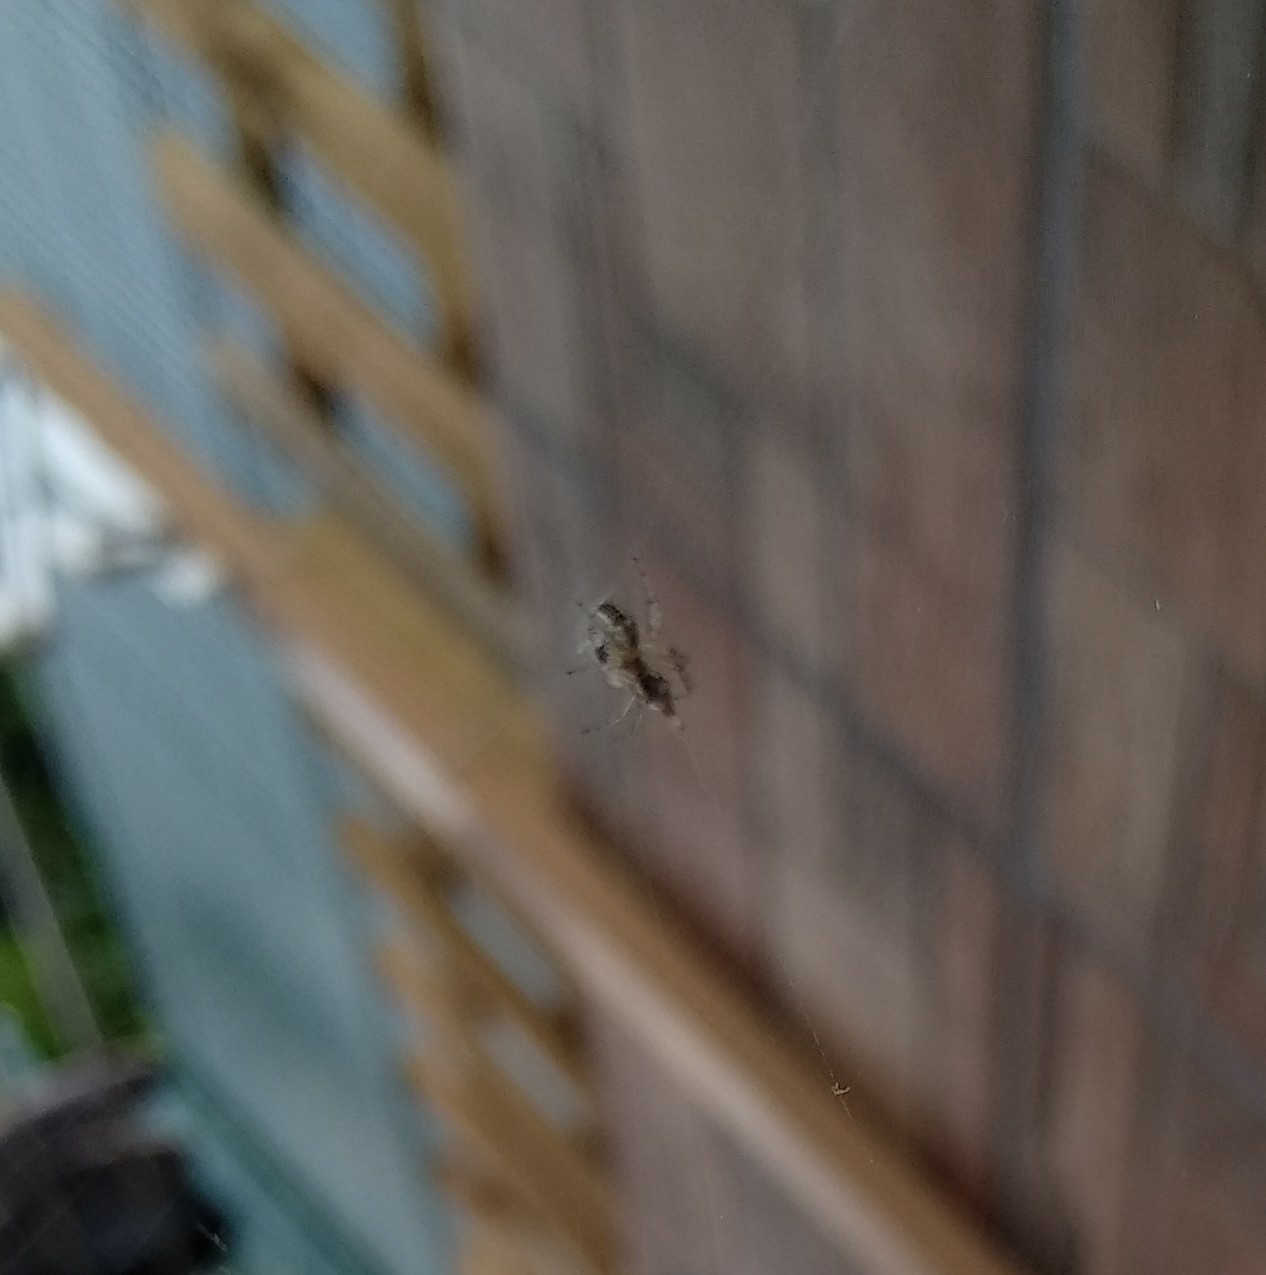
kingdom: Animalia
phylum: Arthropoda
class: Arachnida
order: Araneae
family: Araneidae
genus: Mangora
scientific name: Mangora acalypha
